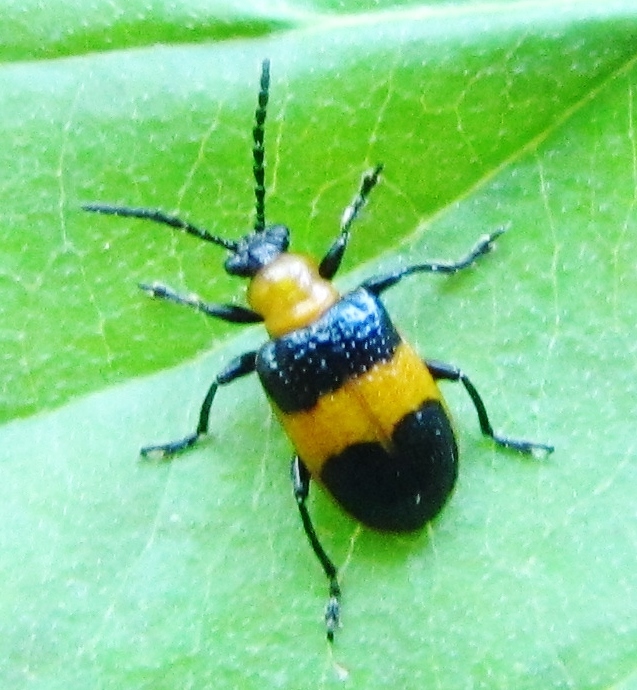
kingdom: Animalia
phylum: Arthropoda
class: Insecta
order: Coleoptera
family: Chrysomelidae
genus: Lema
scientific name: Lema solani
